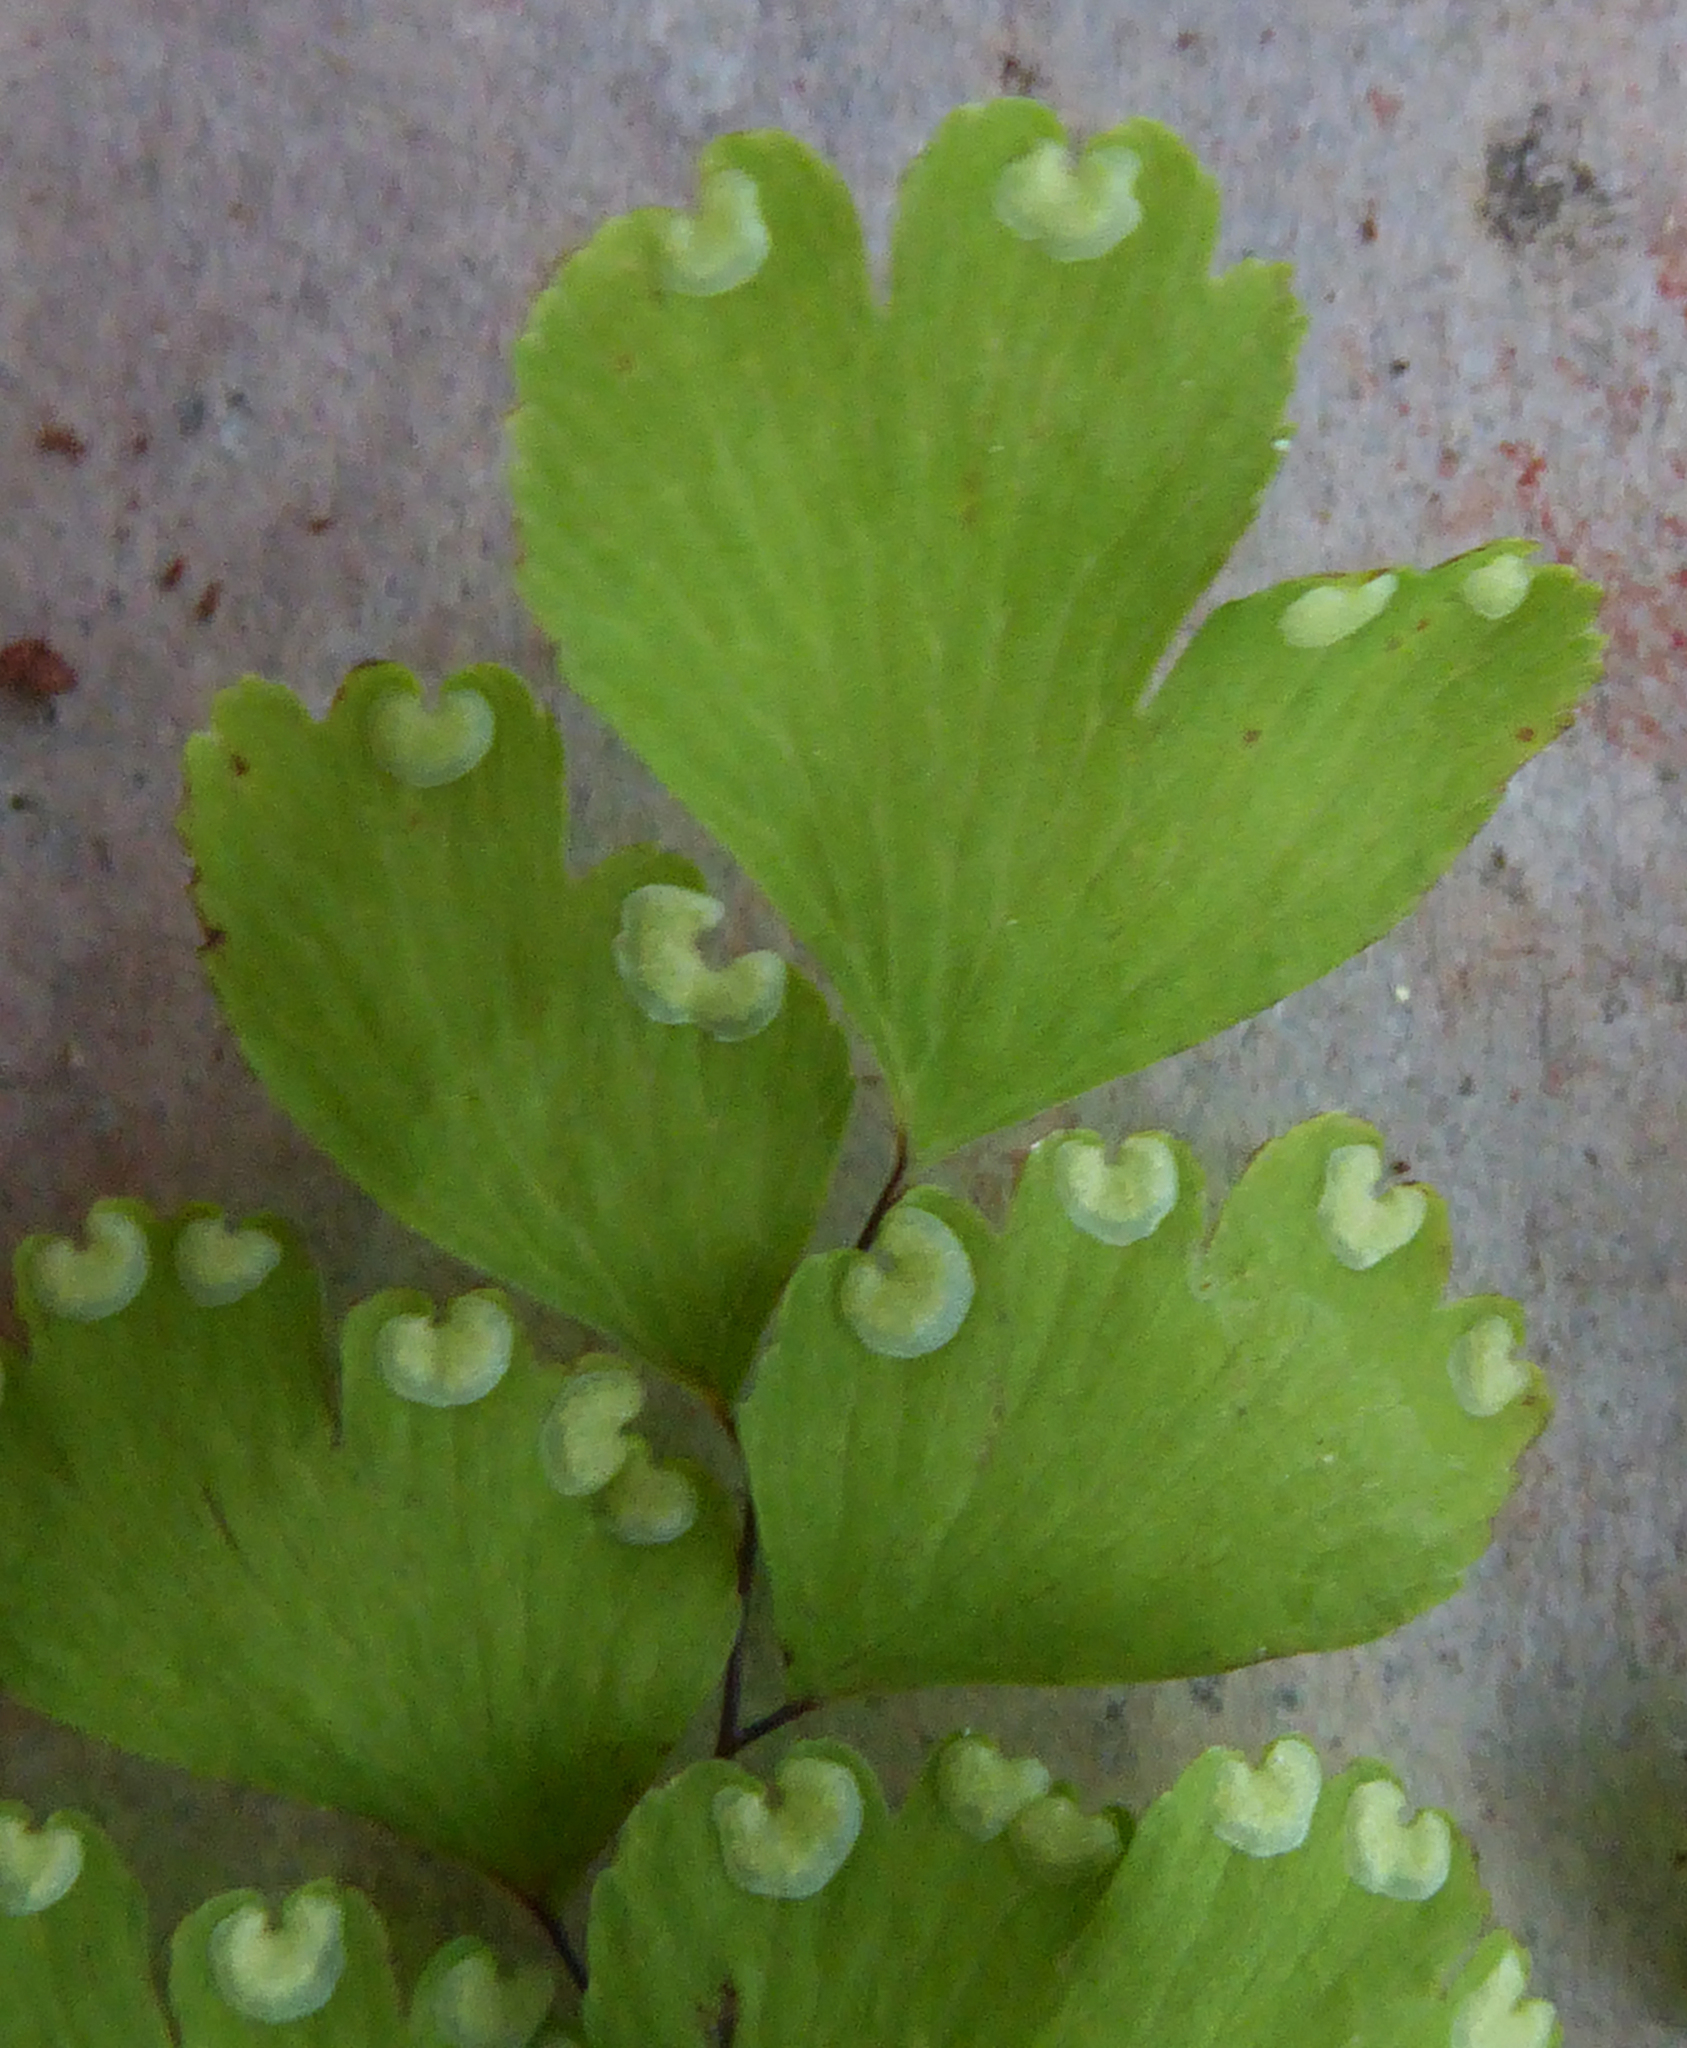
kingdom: Plantae
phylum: Tracheophyta
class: Polypodiopsida
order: Polypodiales
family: Pteridaceae
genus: Adiantum
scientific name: Adiantum raddianum
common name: Delta maidenhair fern
